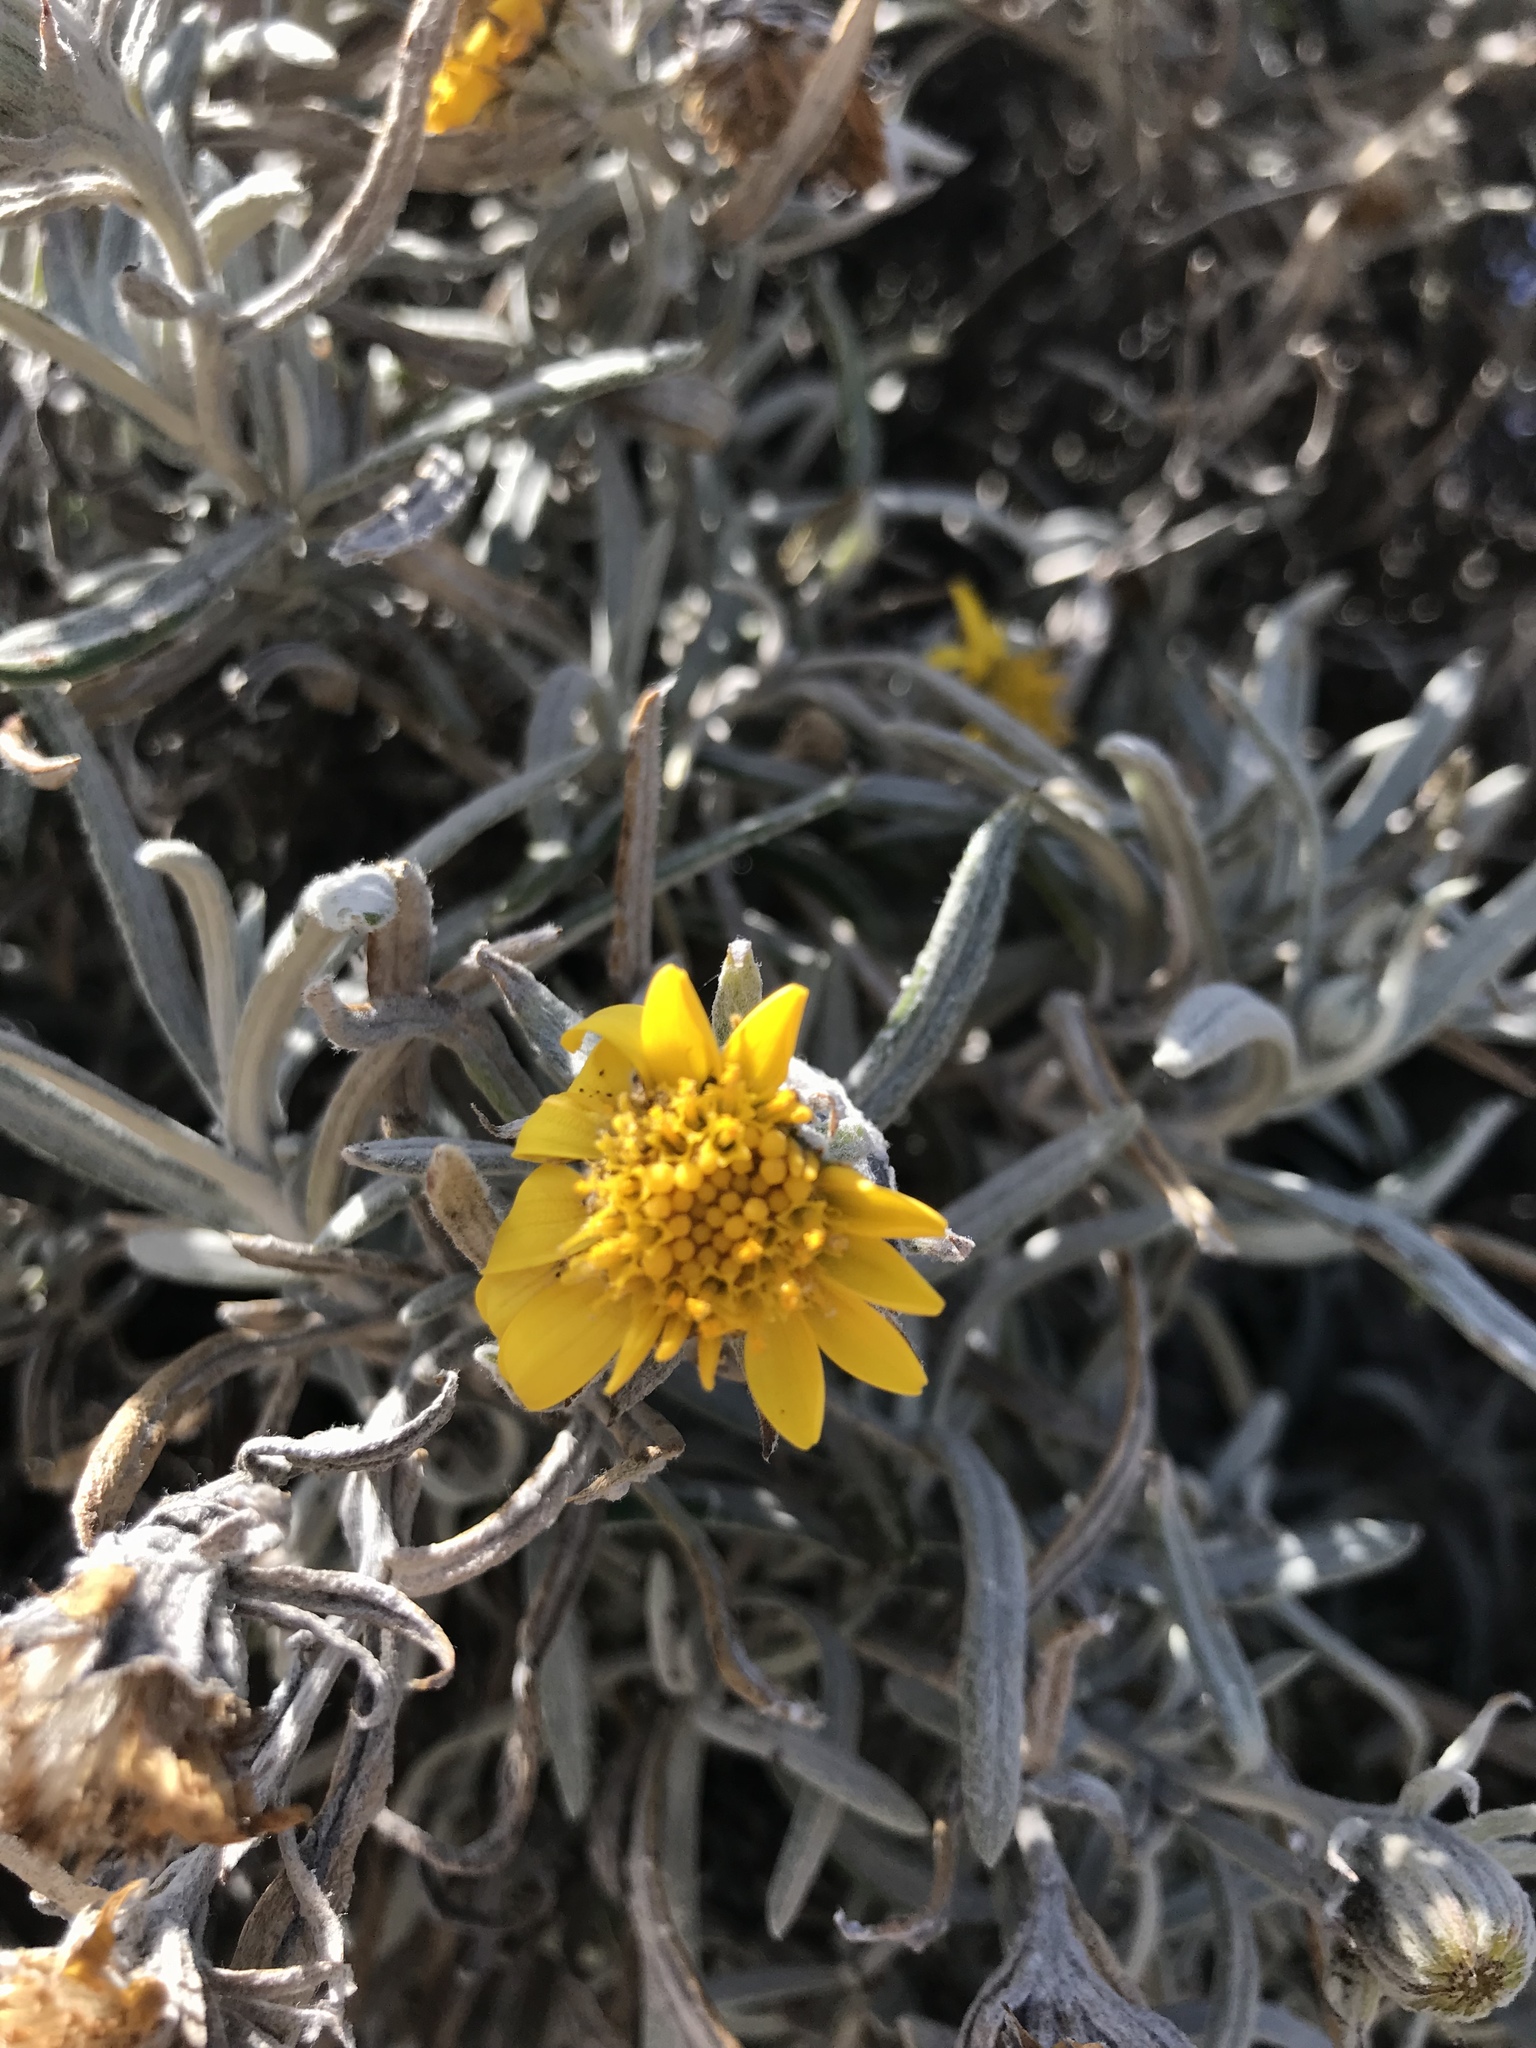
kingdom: Plantae
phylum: Tracheophyta
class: Magnoliopsida
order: Asterales
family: Asteraceae
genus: Senecio
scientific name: Senecio mairetianus
